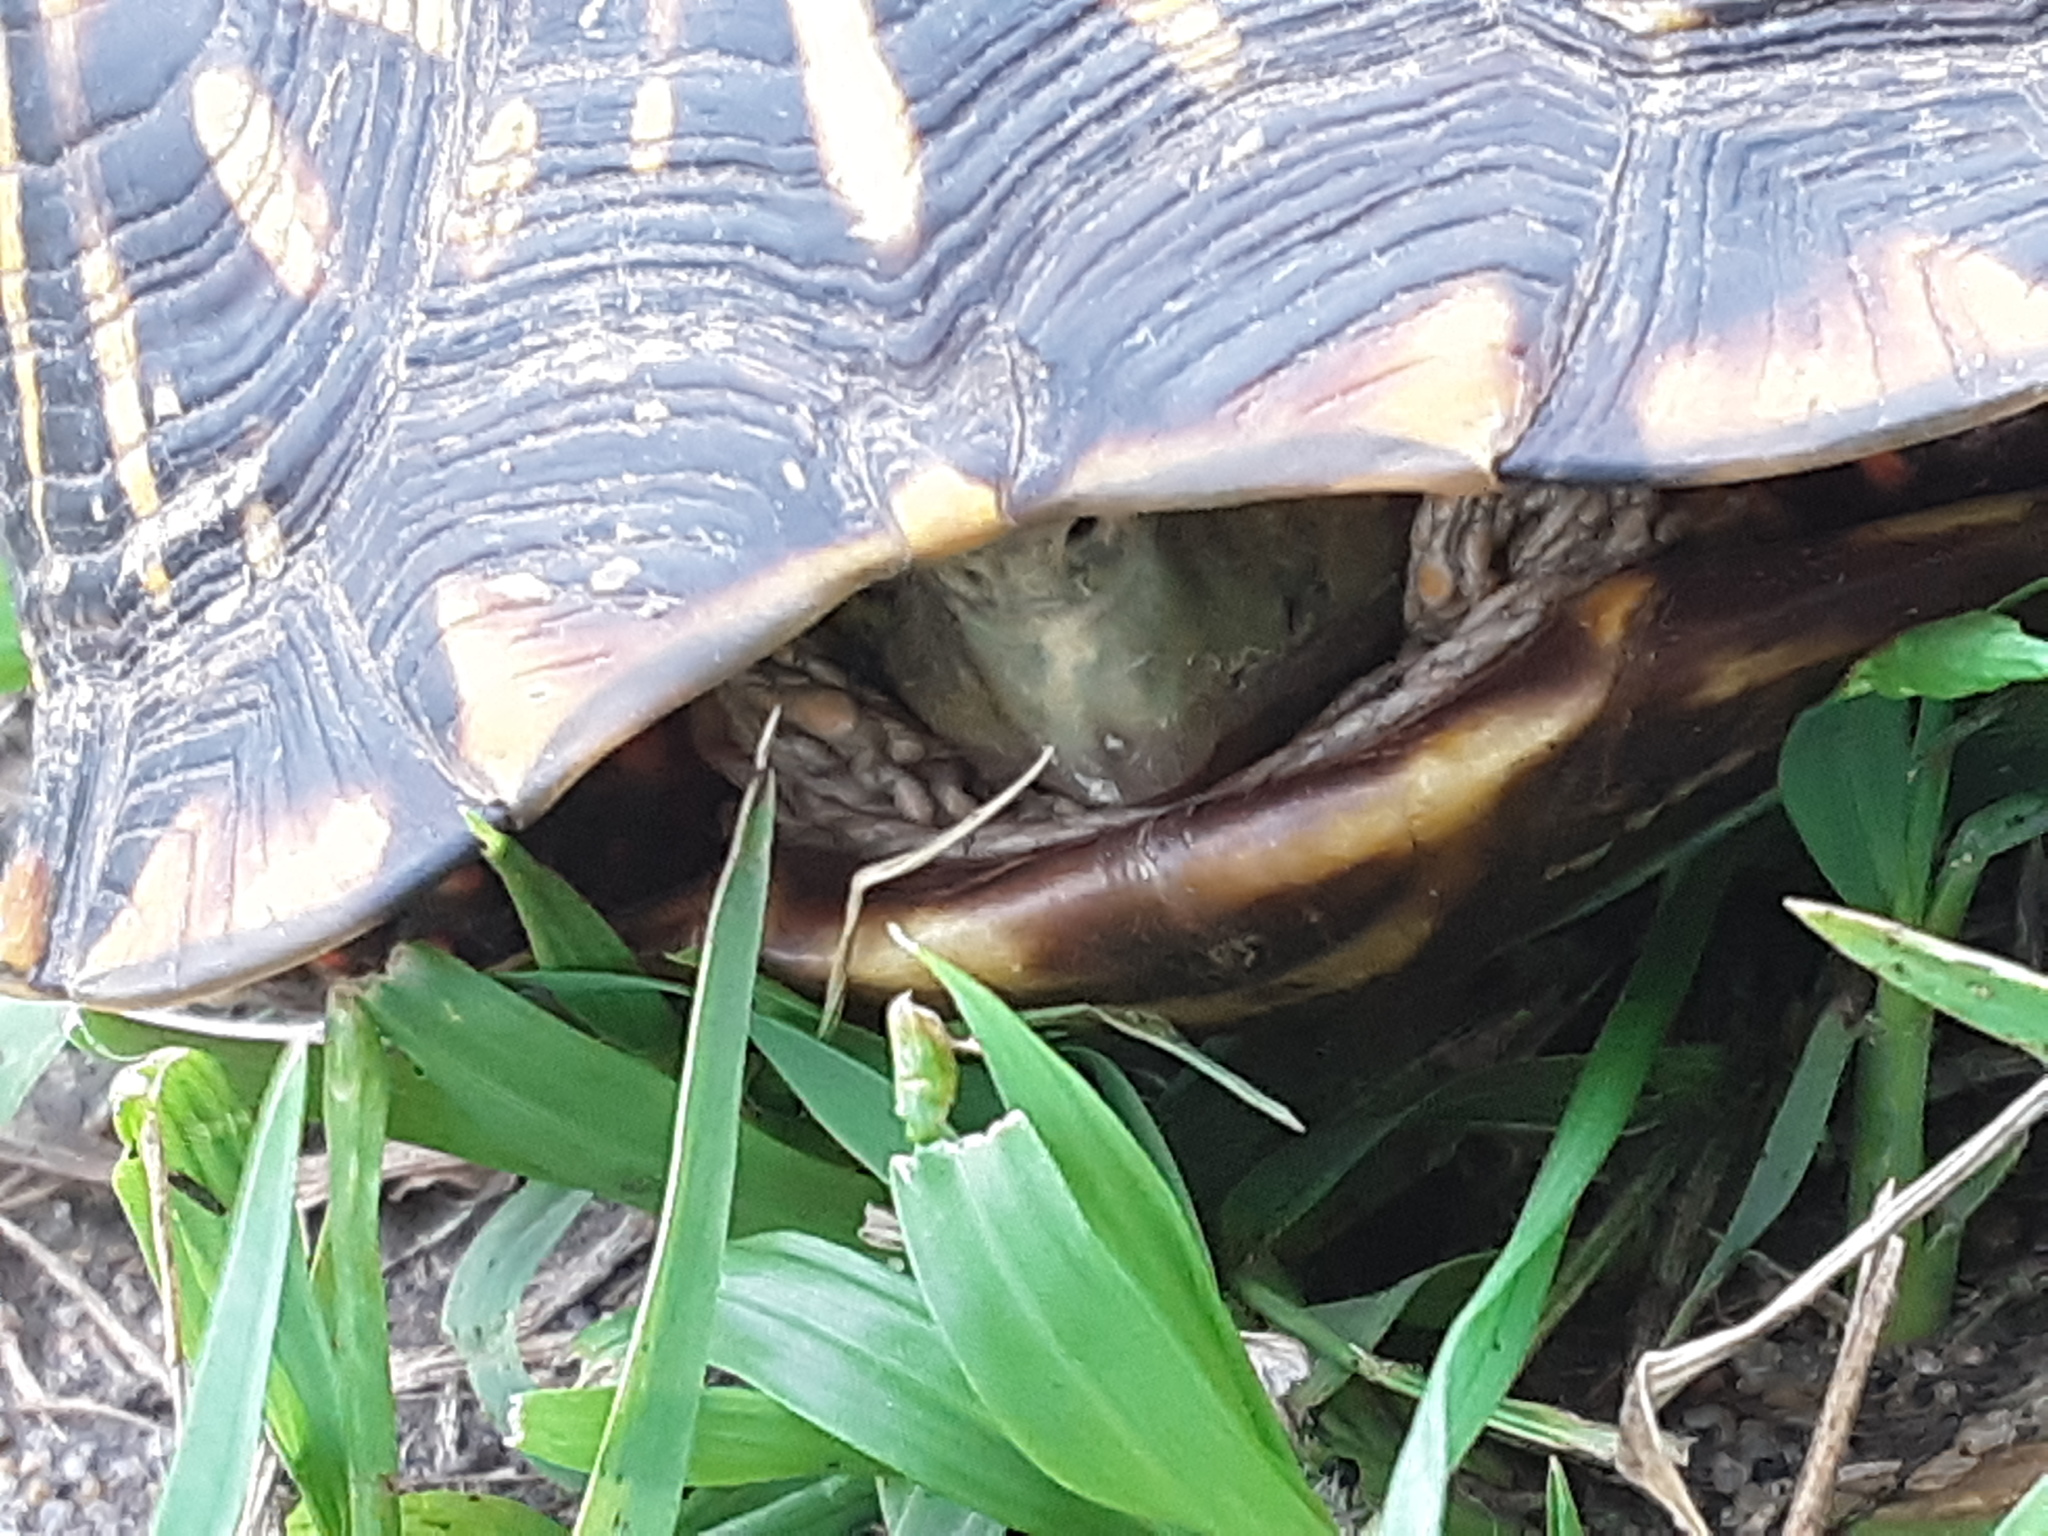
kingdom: Animalia
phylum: Chordata
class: Testudines
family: Emydidae
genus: Terrapene
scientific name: Terrapene ornata
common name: Western box turtle
